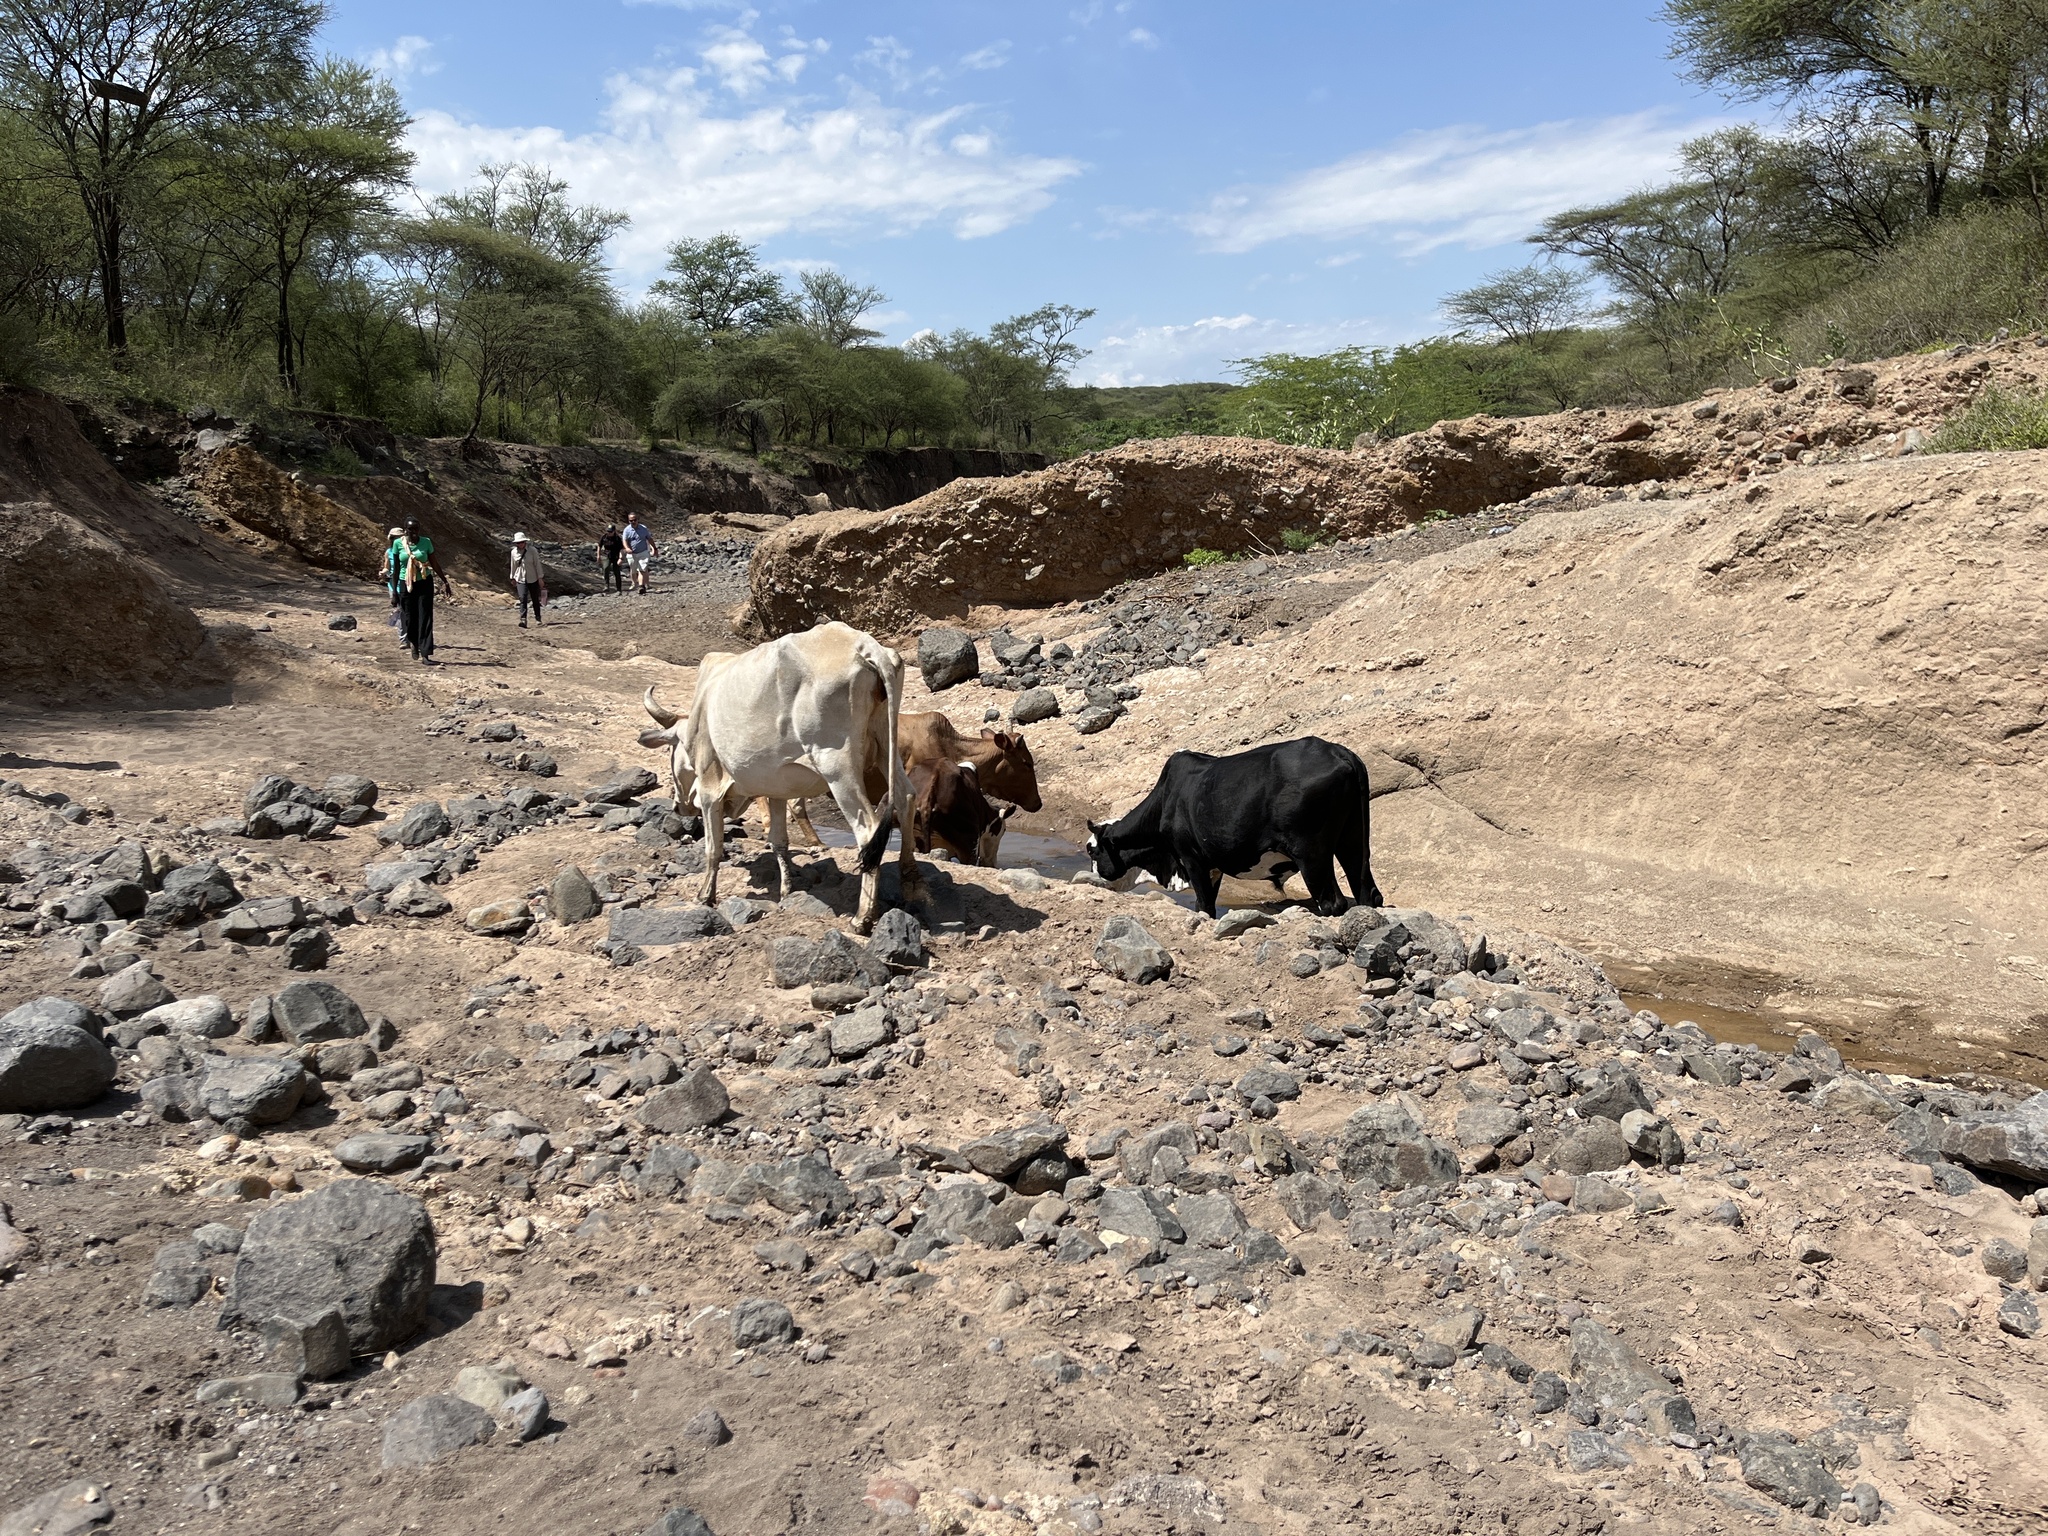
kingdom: Animalia
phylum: Chordata
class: Mammalia
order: Artiodactyla
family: Bovidae
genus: Bos
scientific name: Bos taurus
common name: Domesticated cattle
